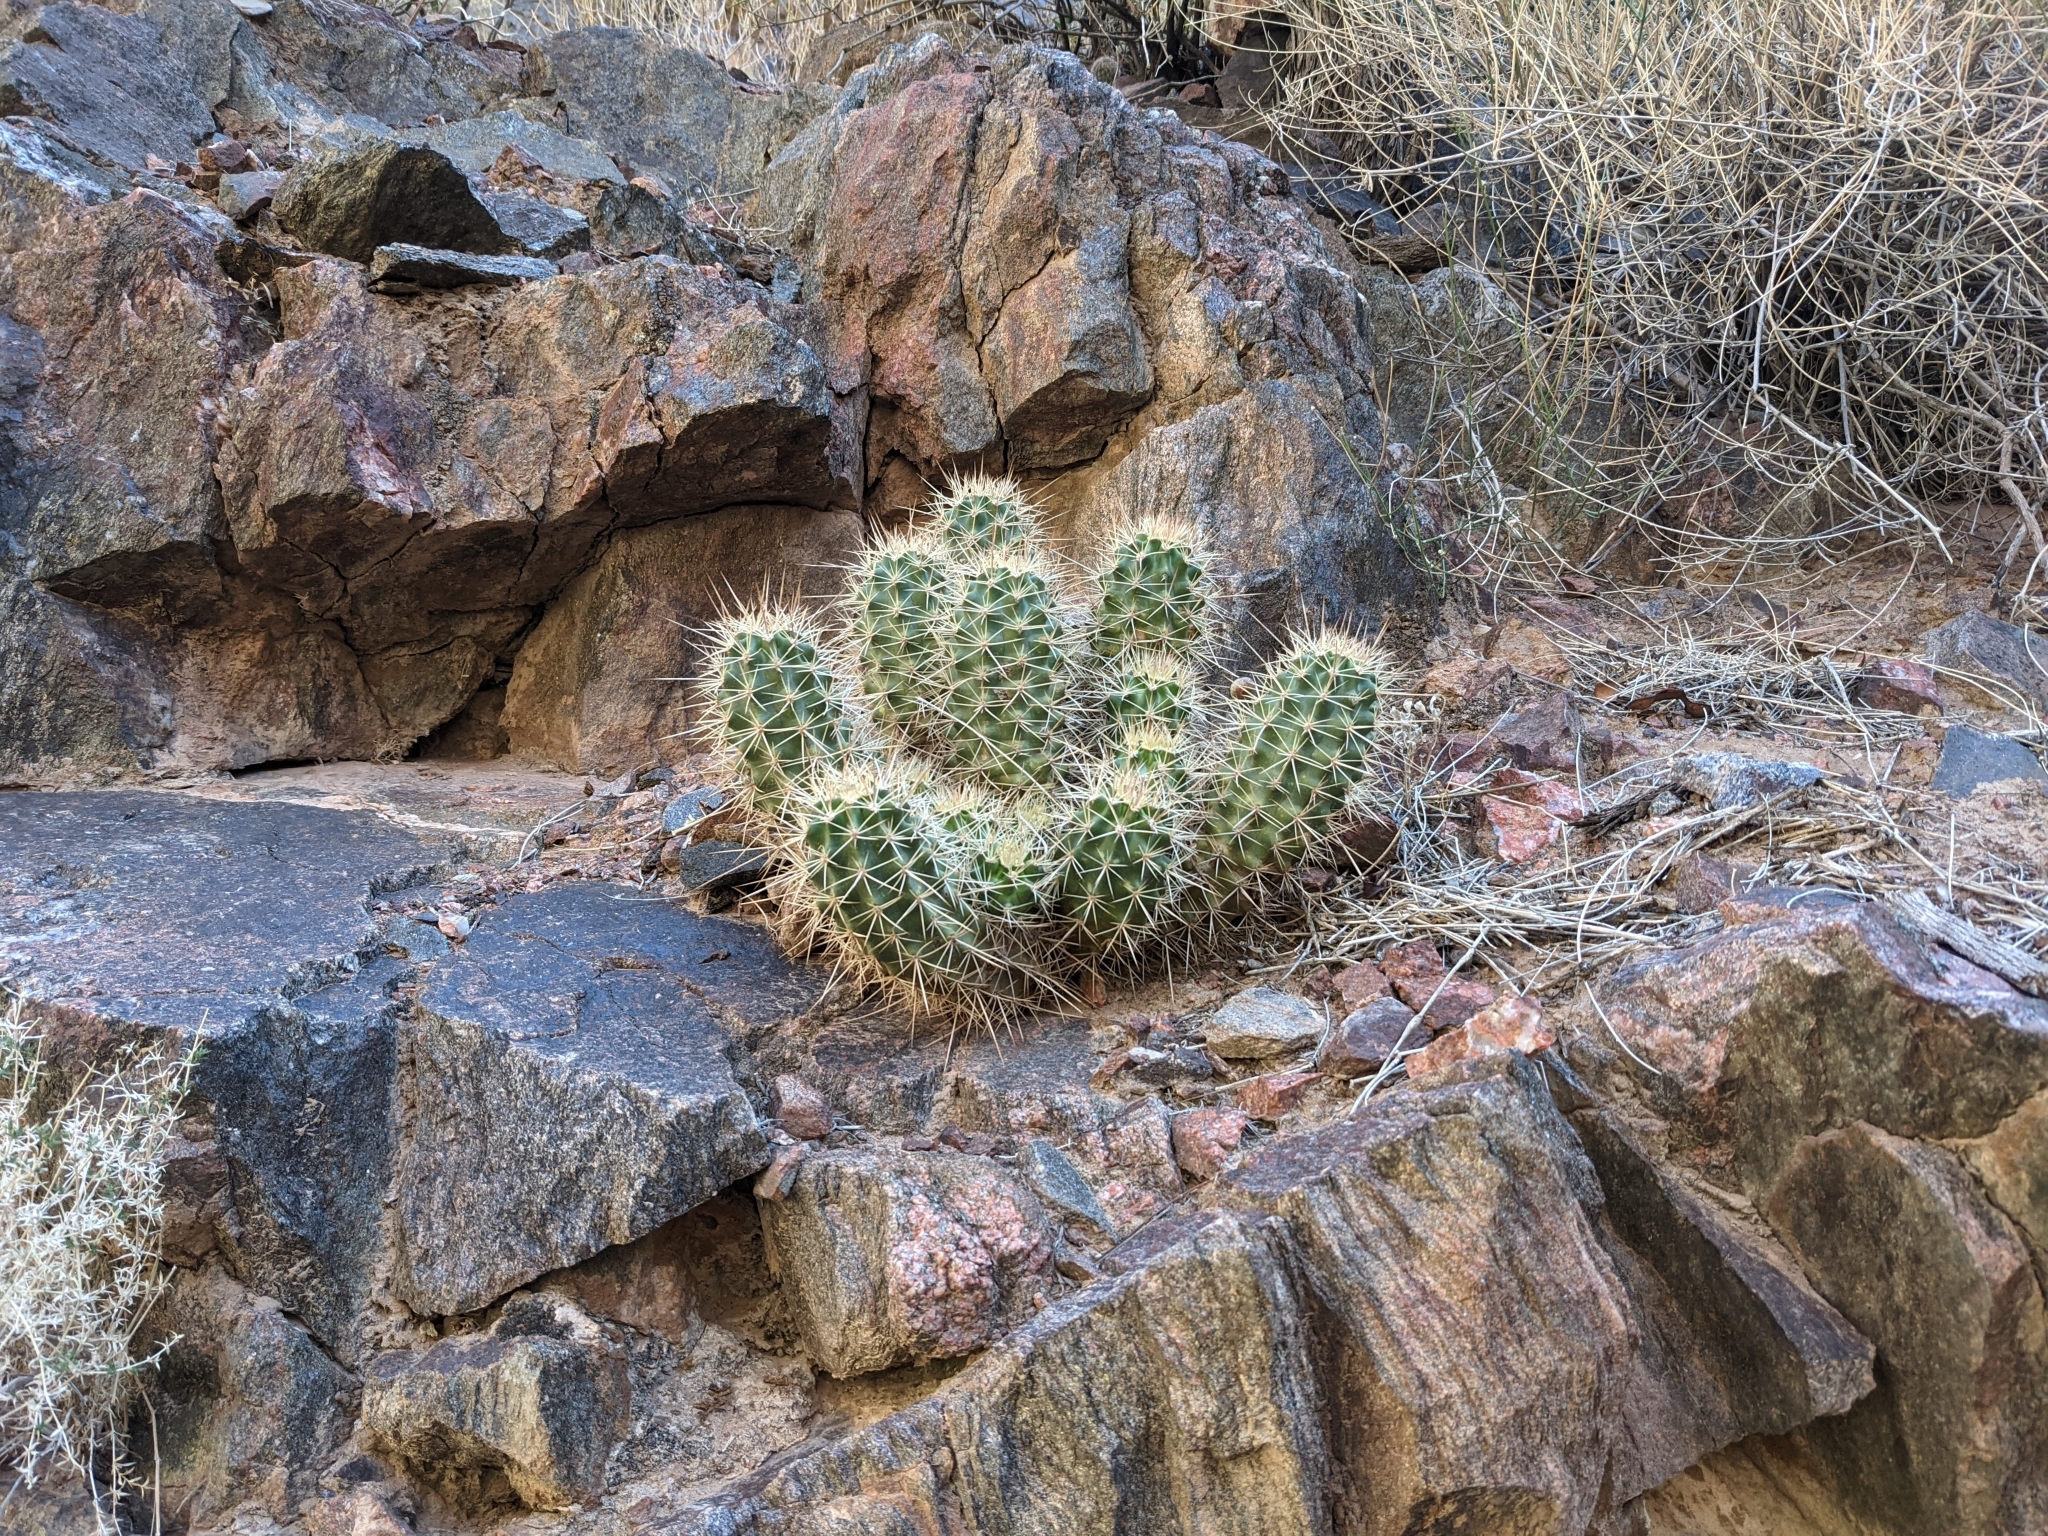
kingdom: Plantae
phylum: Tracheophyta
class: Magnoliopsida
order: Caryophyllales
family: Cactaceae
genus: Echinocereus
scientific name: Echinocereus triglochidiatus
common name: Claretcup hedgehog
